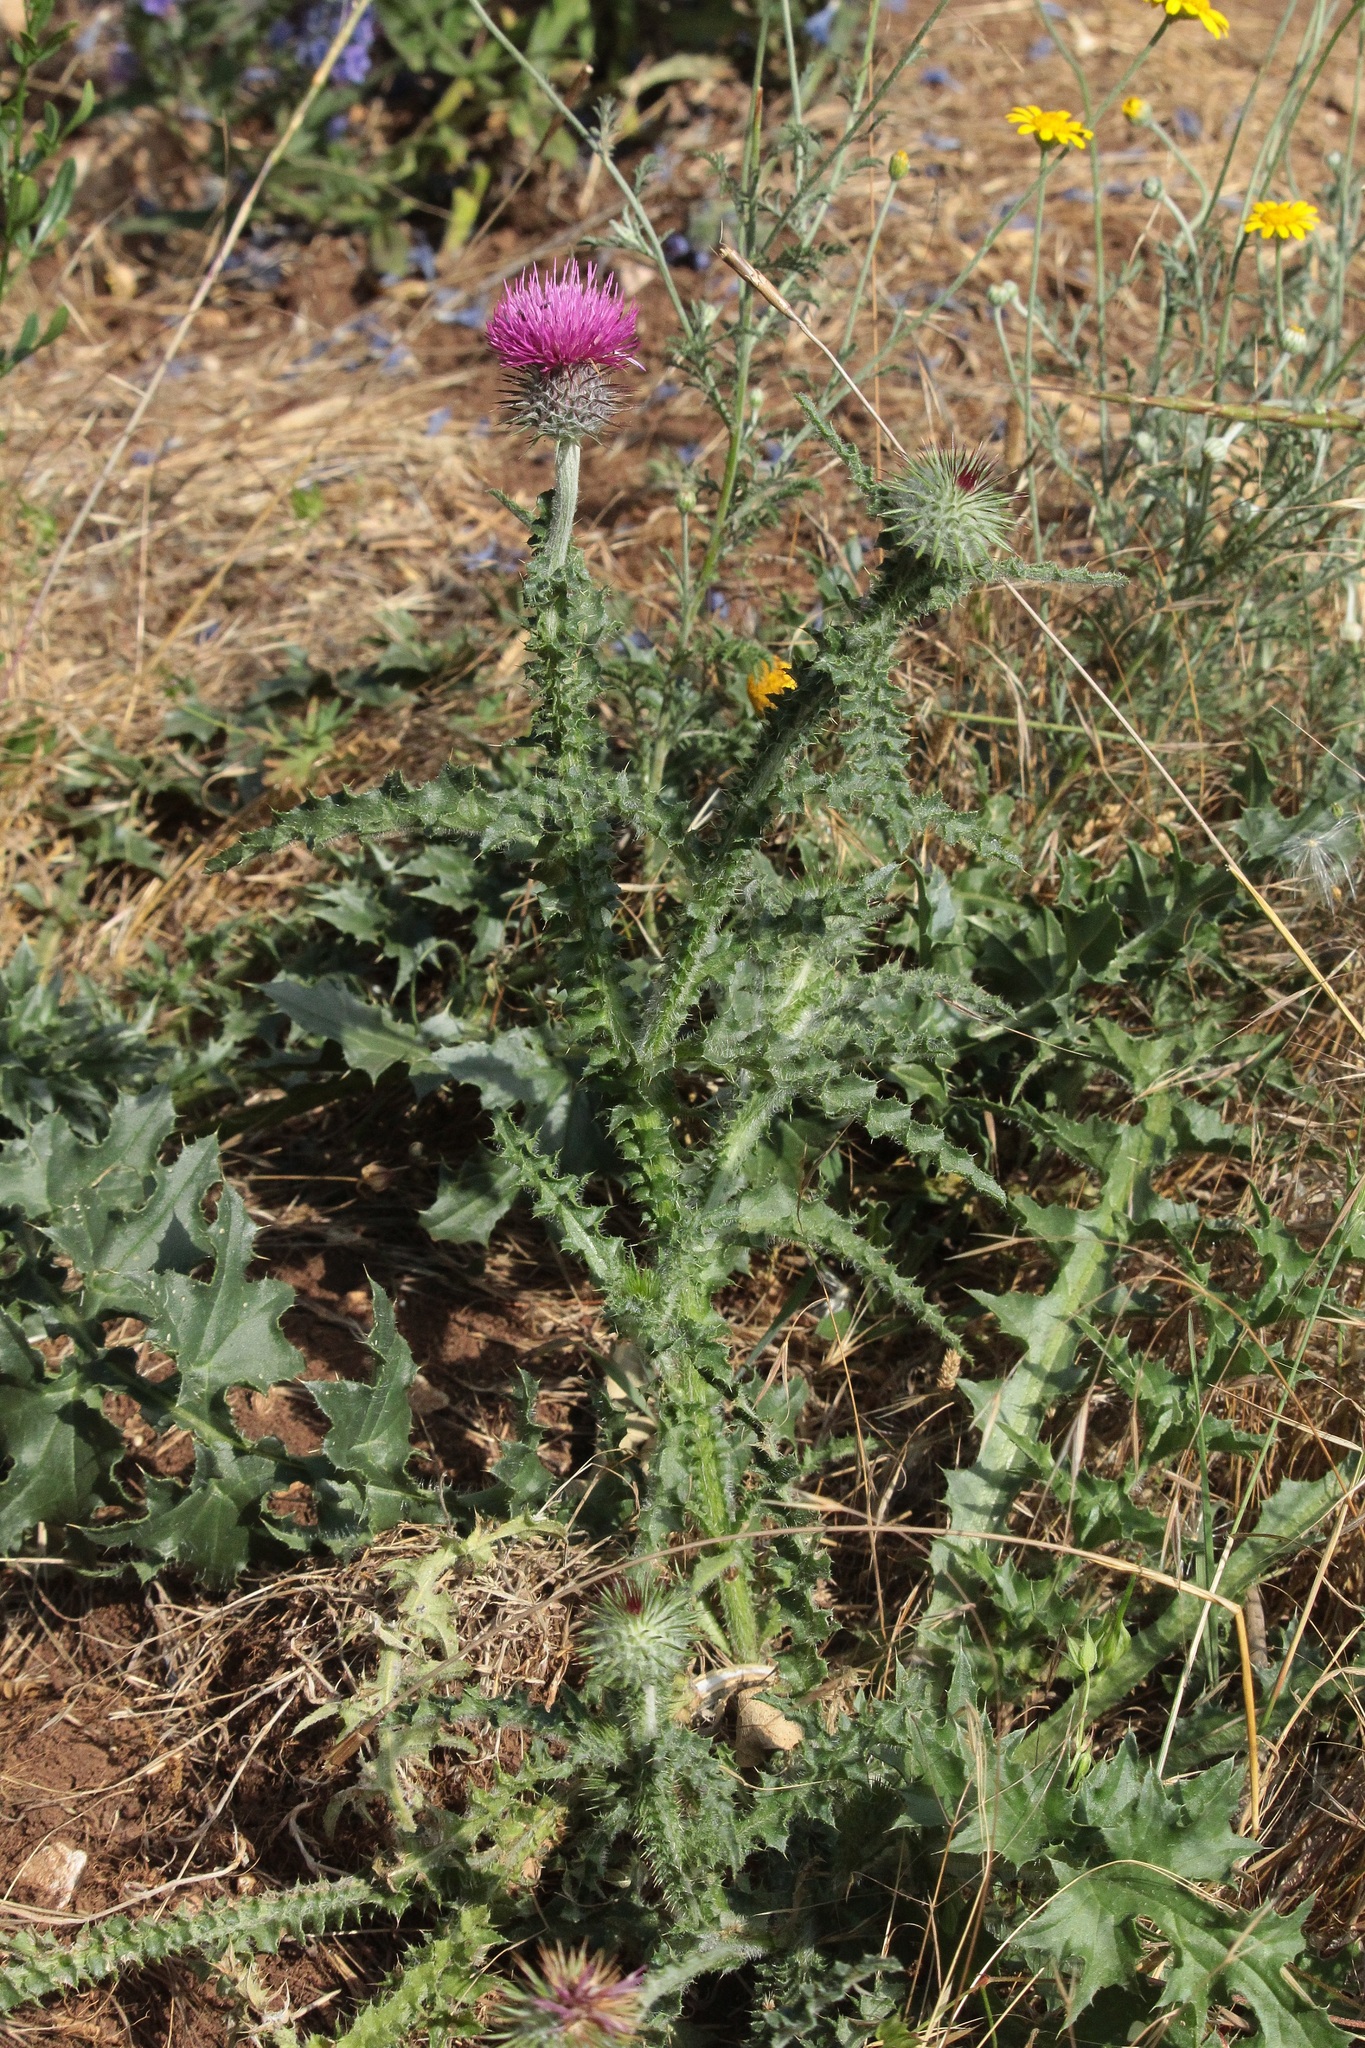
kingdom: Plantae
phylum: Tracheophyta
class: Magnoliopsida
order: Asterales
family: Asteraceae
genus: Carduus
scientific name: Carduus uncinatus
